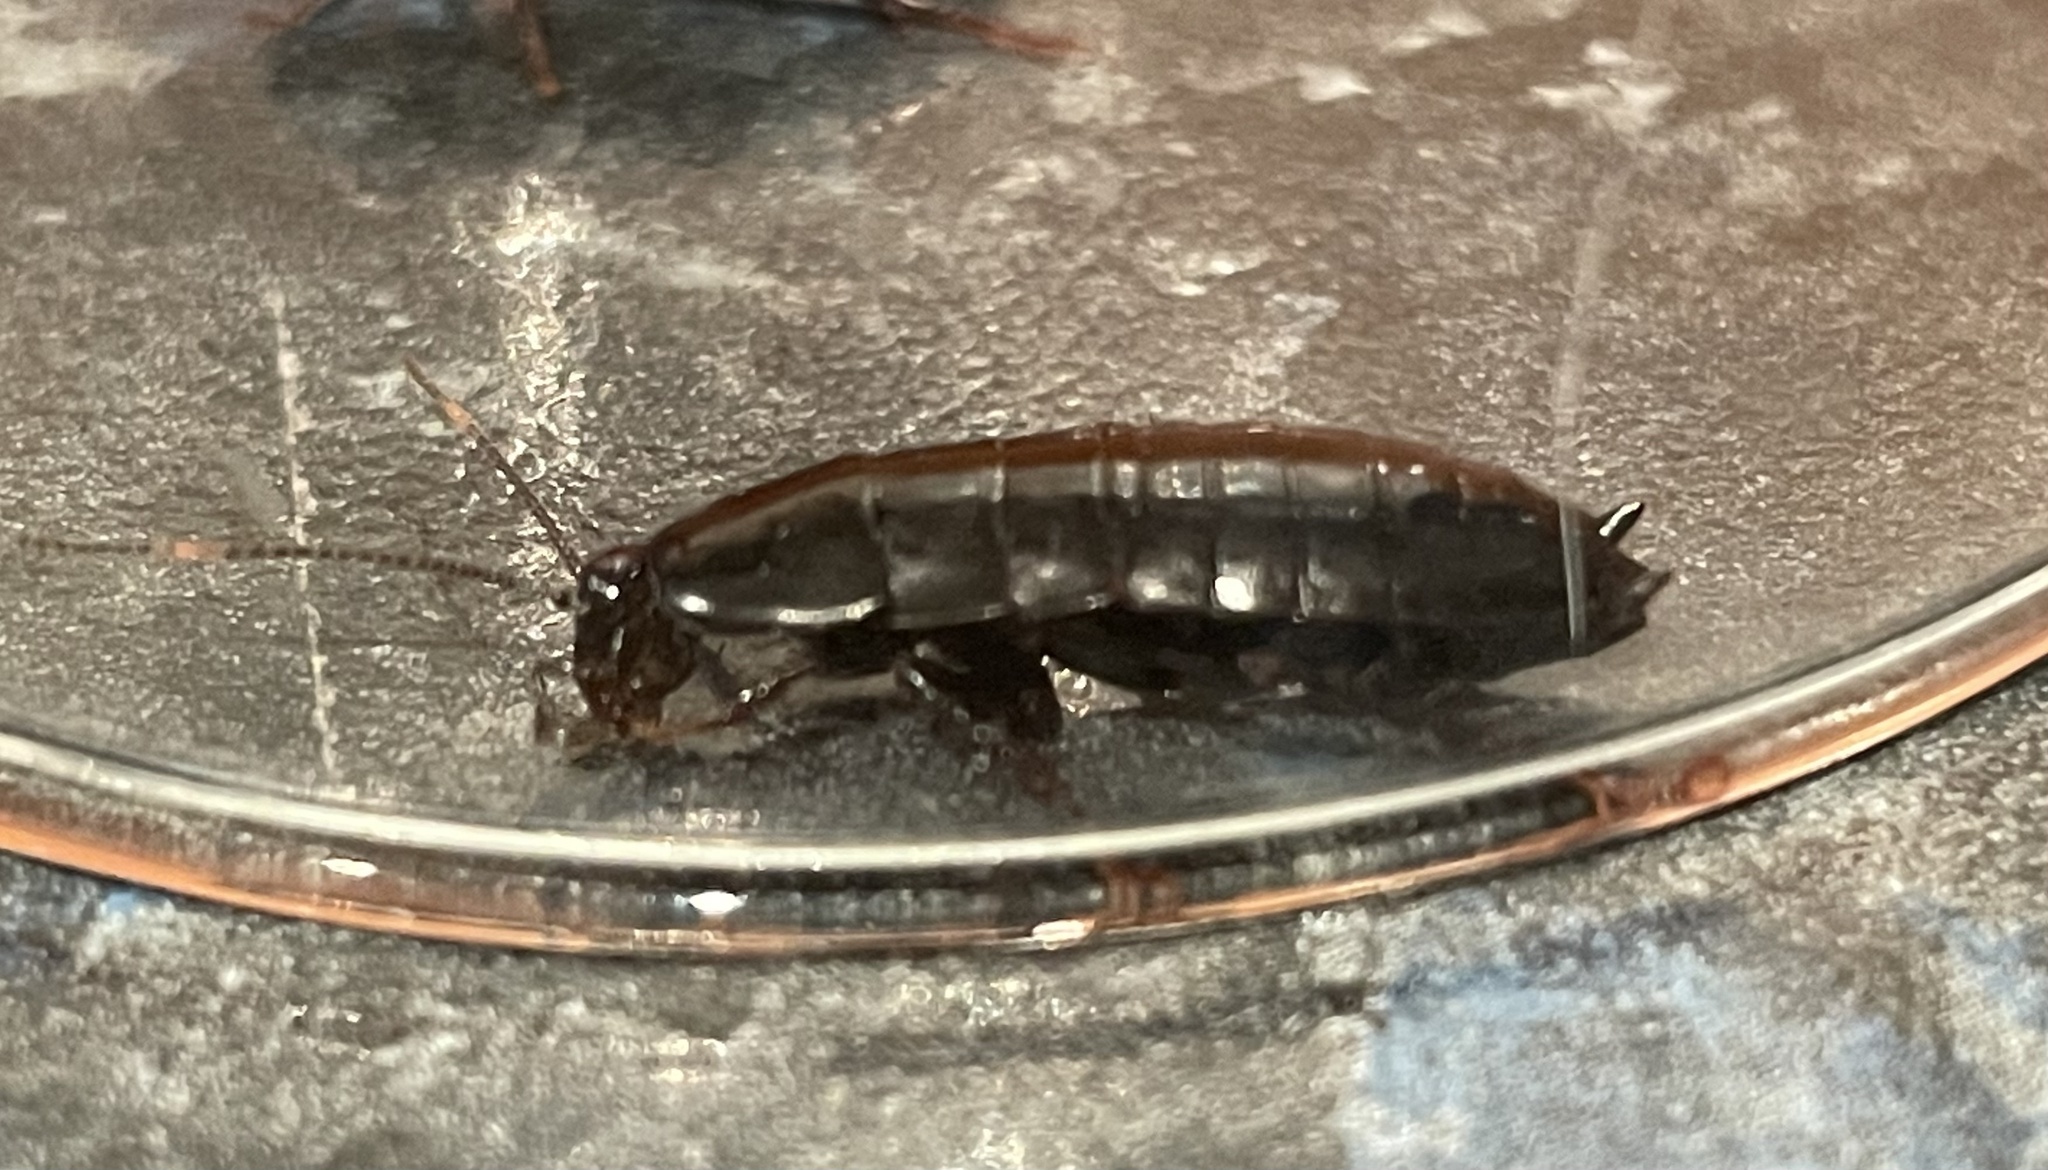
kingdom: Animalia
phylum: Arthropoda
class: Insecta
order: Blattodea
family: Tryonicidae
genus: Tryonicus
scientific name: Tryonicus parvus
